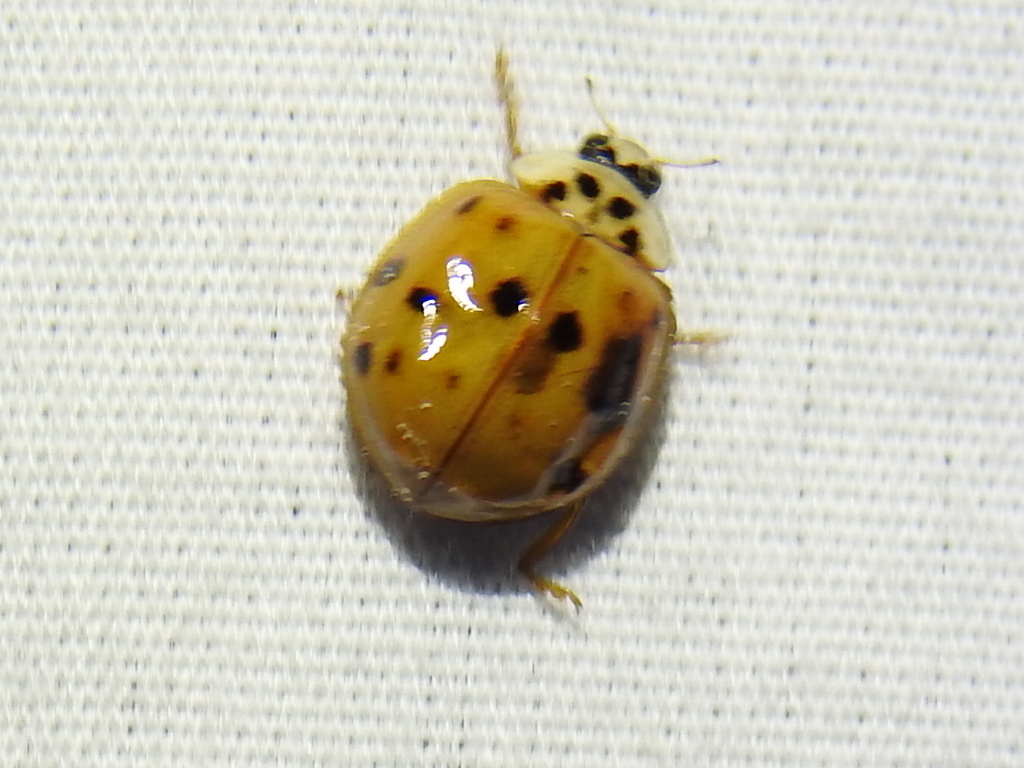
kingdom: Animalia
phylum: Arthropoda
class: Insecta
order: Coleoptera
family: Coccinellidae
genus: Harmonia
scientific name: Harmonia axyridis
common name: Harlequin ladybird
